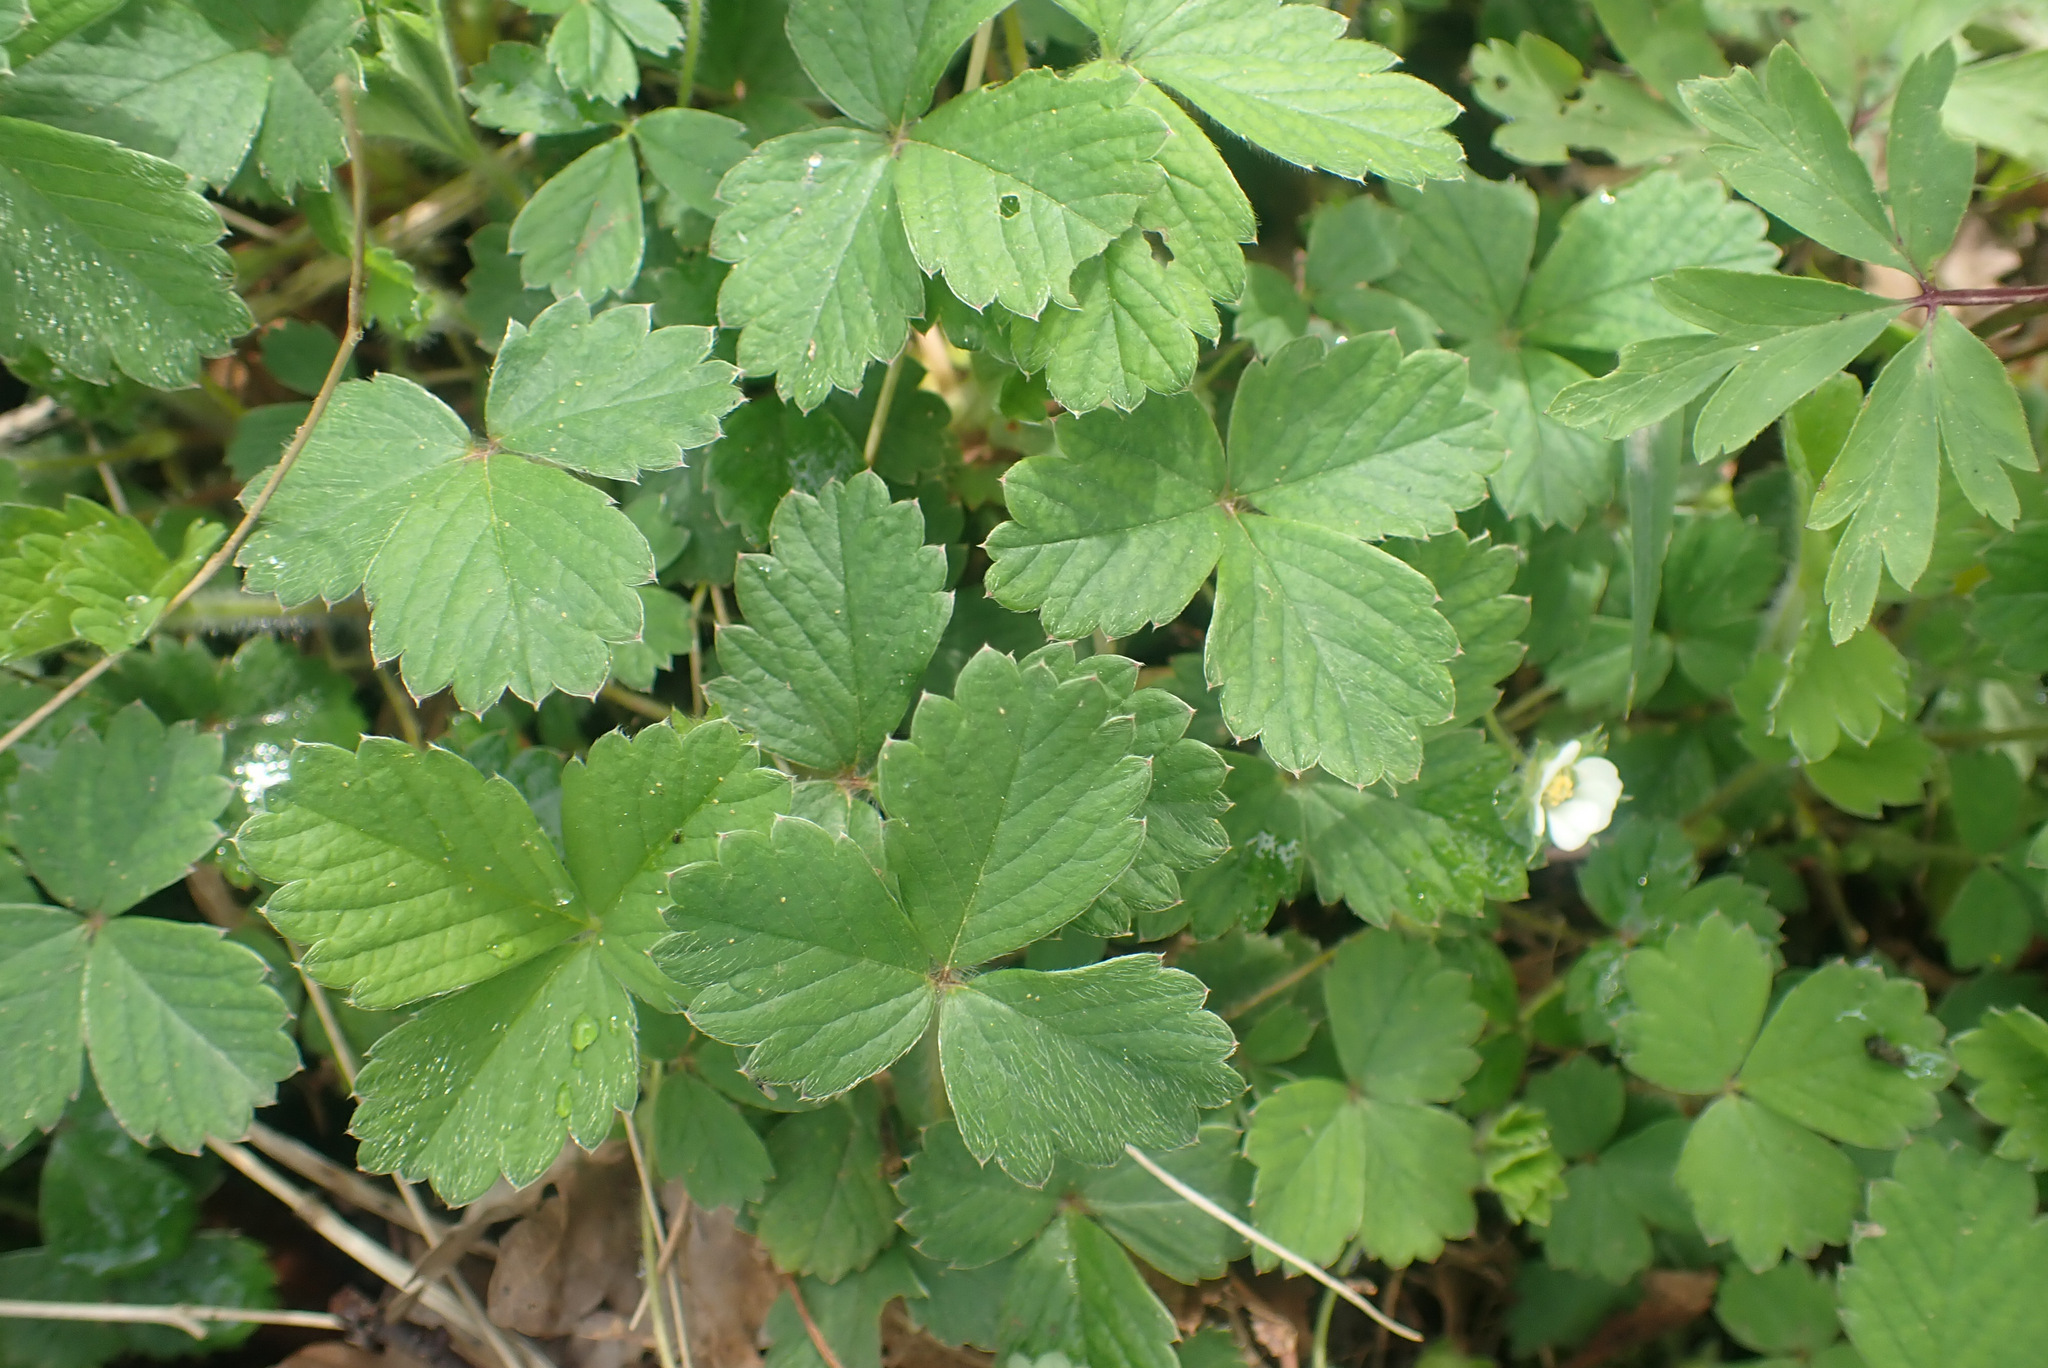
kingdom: Plantae
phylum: Tracheophyta
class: Magnoliopsida
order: Rosales
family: Rosaceae
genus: Potentilla
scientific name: Potentilla sterilis
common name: Barren strawberry
